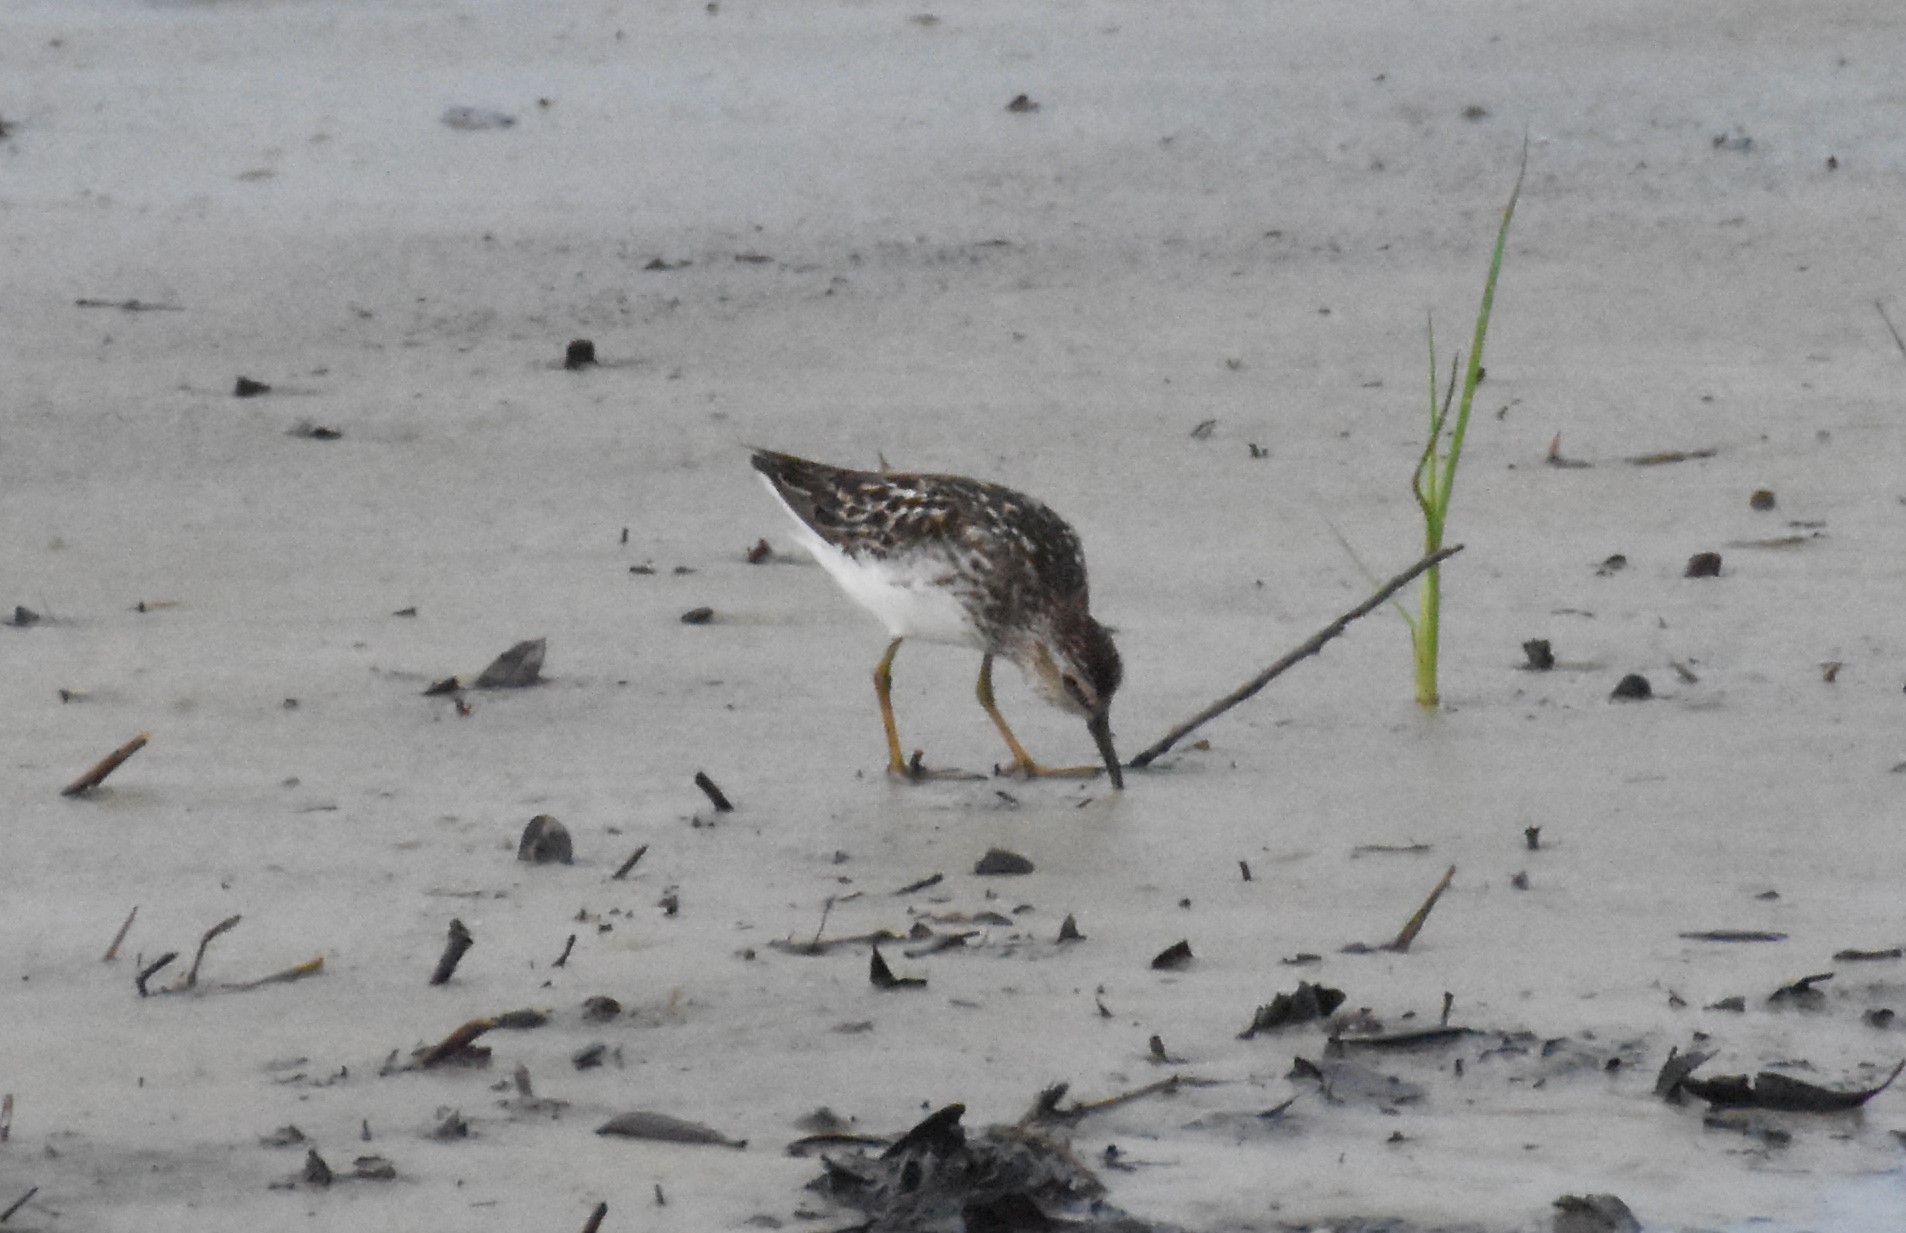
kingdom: Animalia
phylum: Chordata
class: Aves
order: Charadriiformes
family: Scolopacidae
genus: Calidris
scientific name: Calidris minutilla
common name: Least sandpiper
